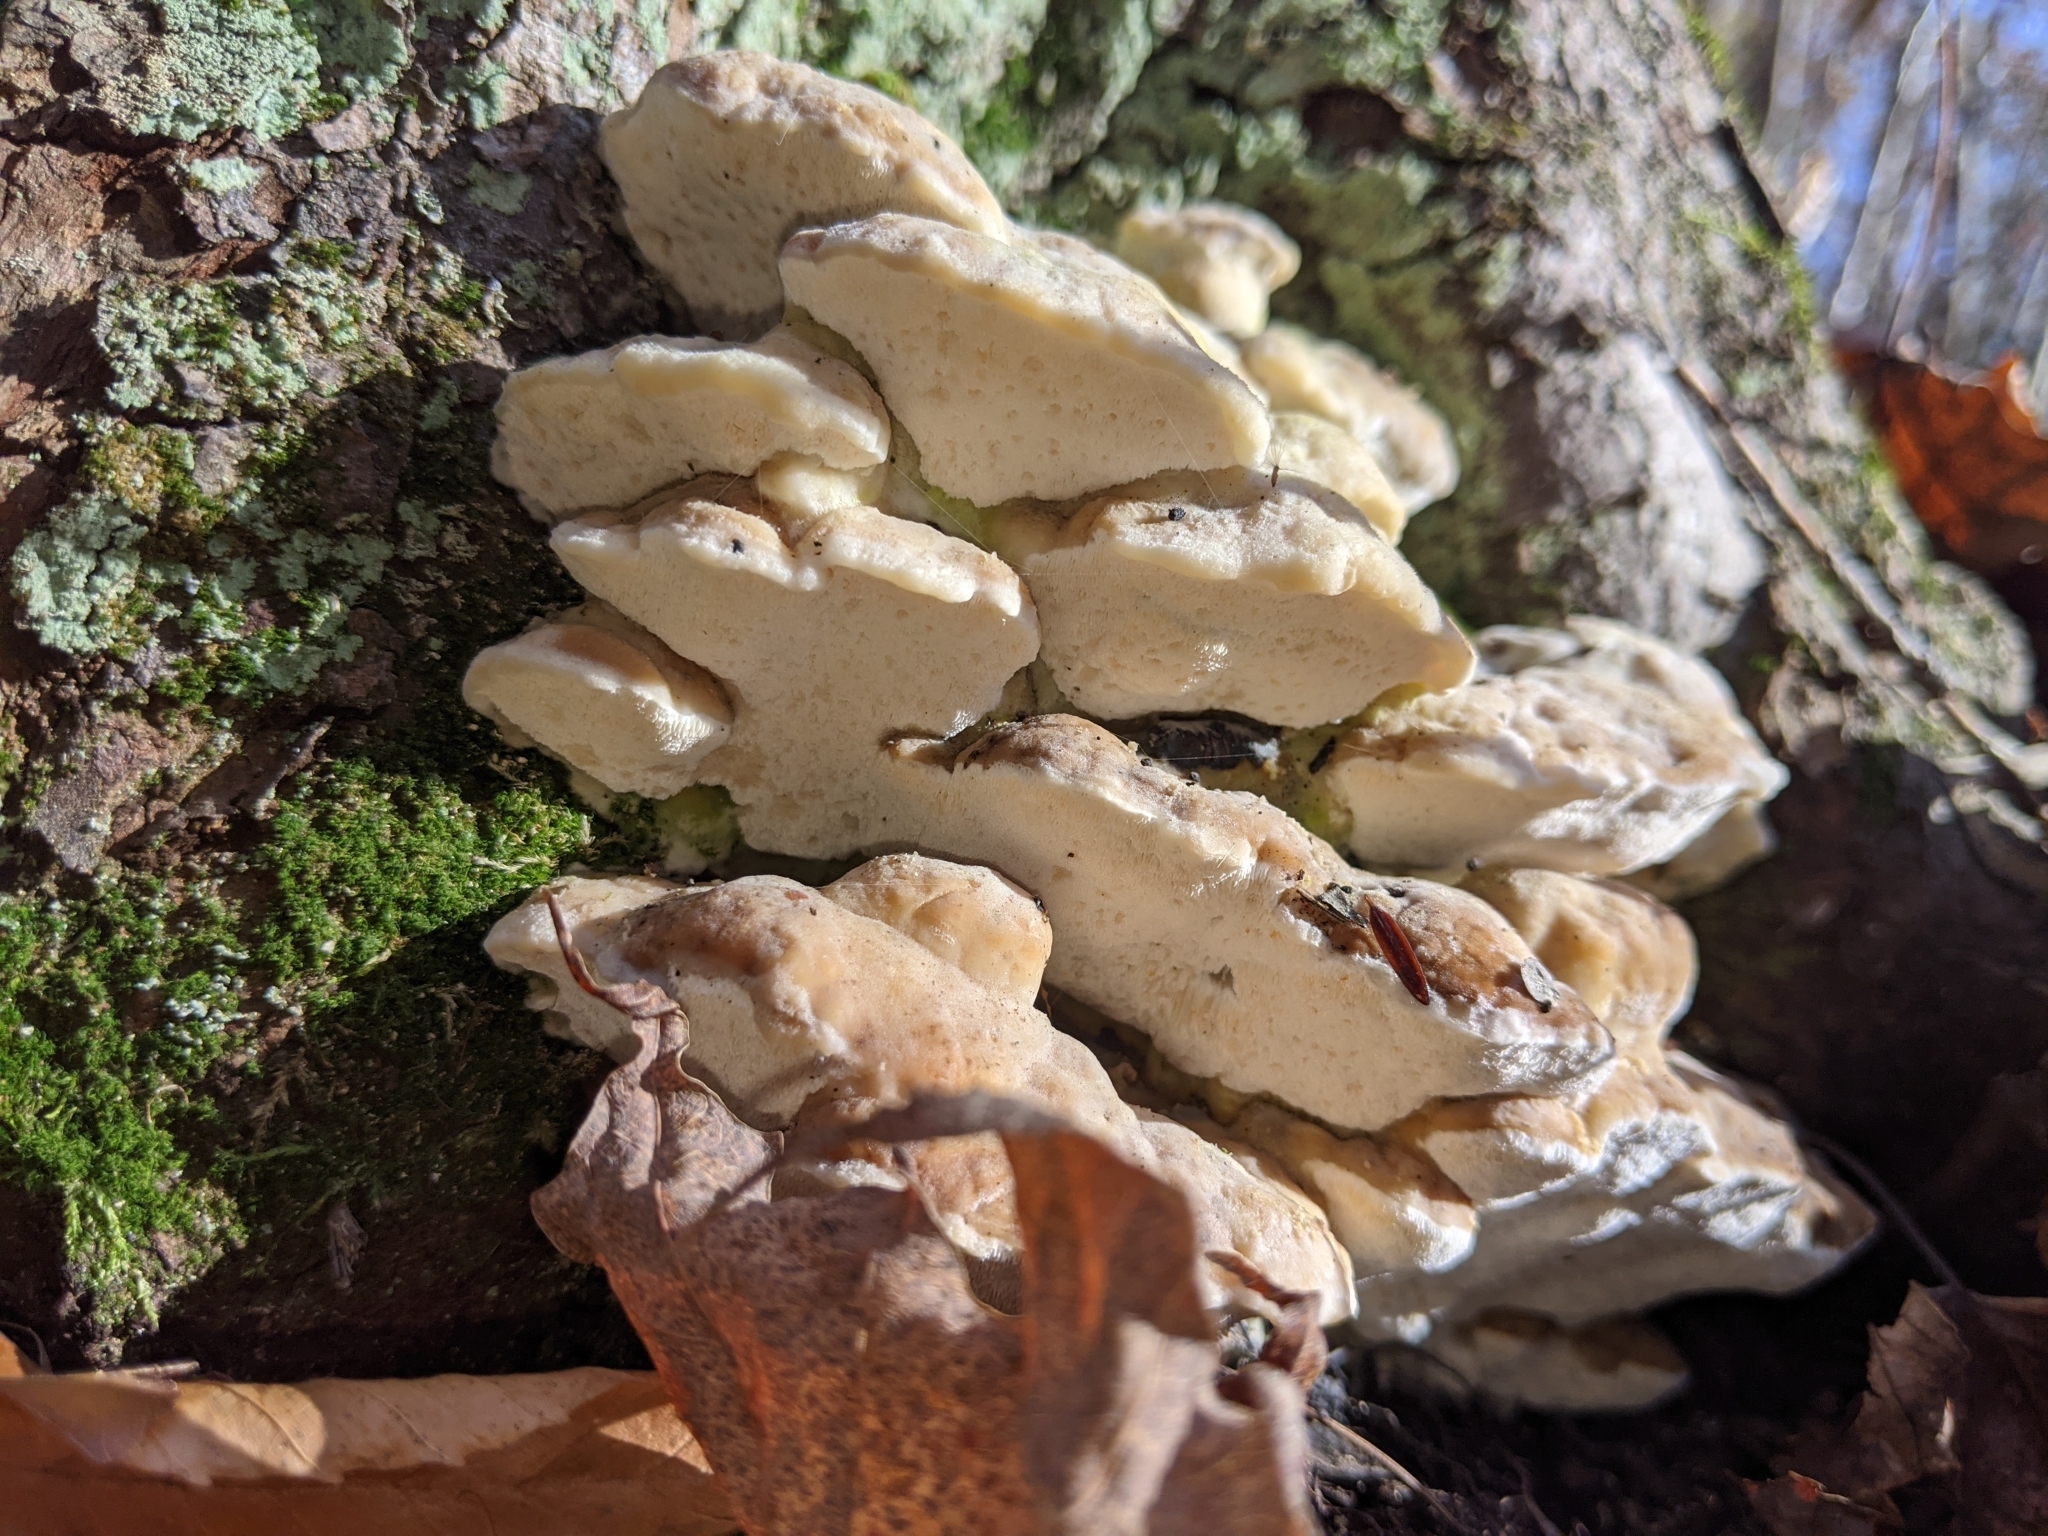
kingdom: Fungi
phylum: Basidiomycota
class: Agaricomycetes
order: Hymenochaetales
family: Oxyporaceae
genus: Oxyporus
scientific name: Oxyporus populinus
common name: Poplar bracket
